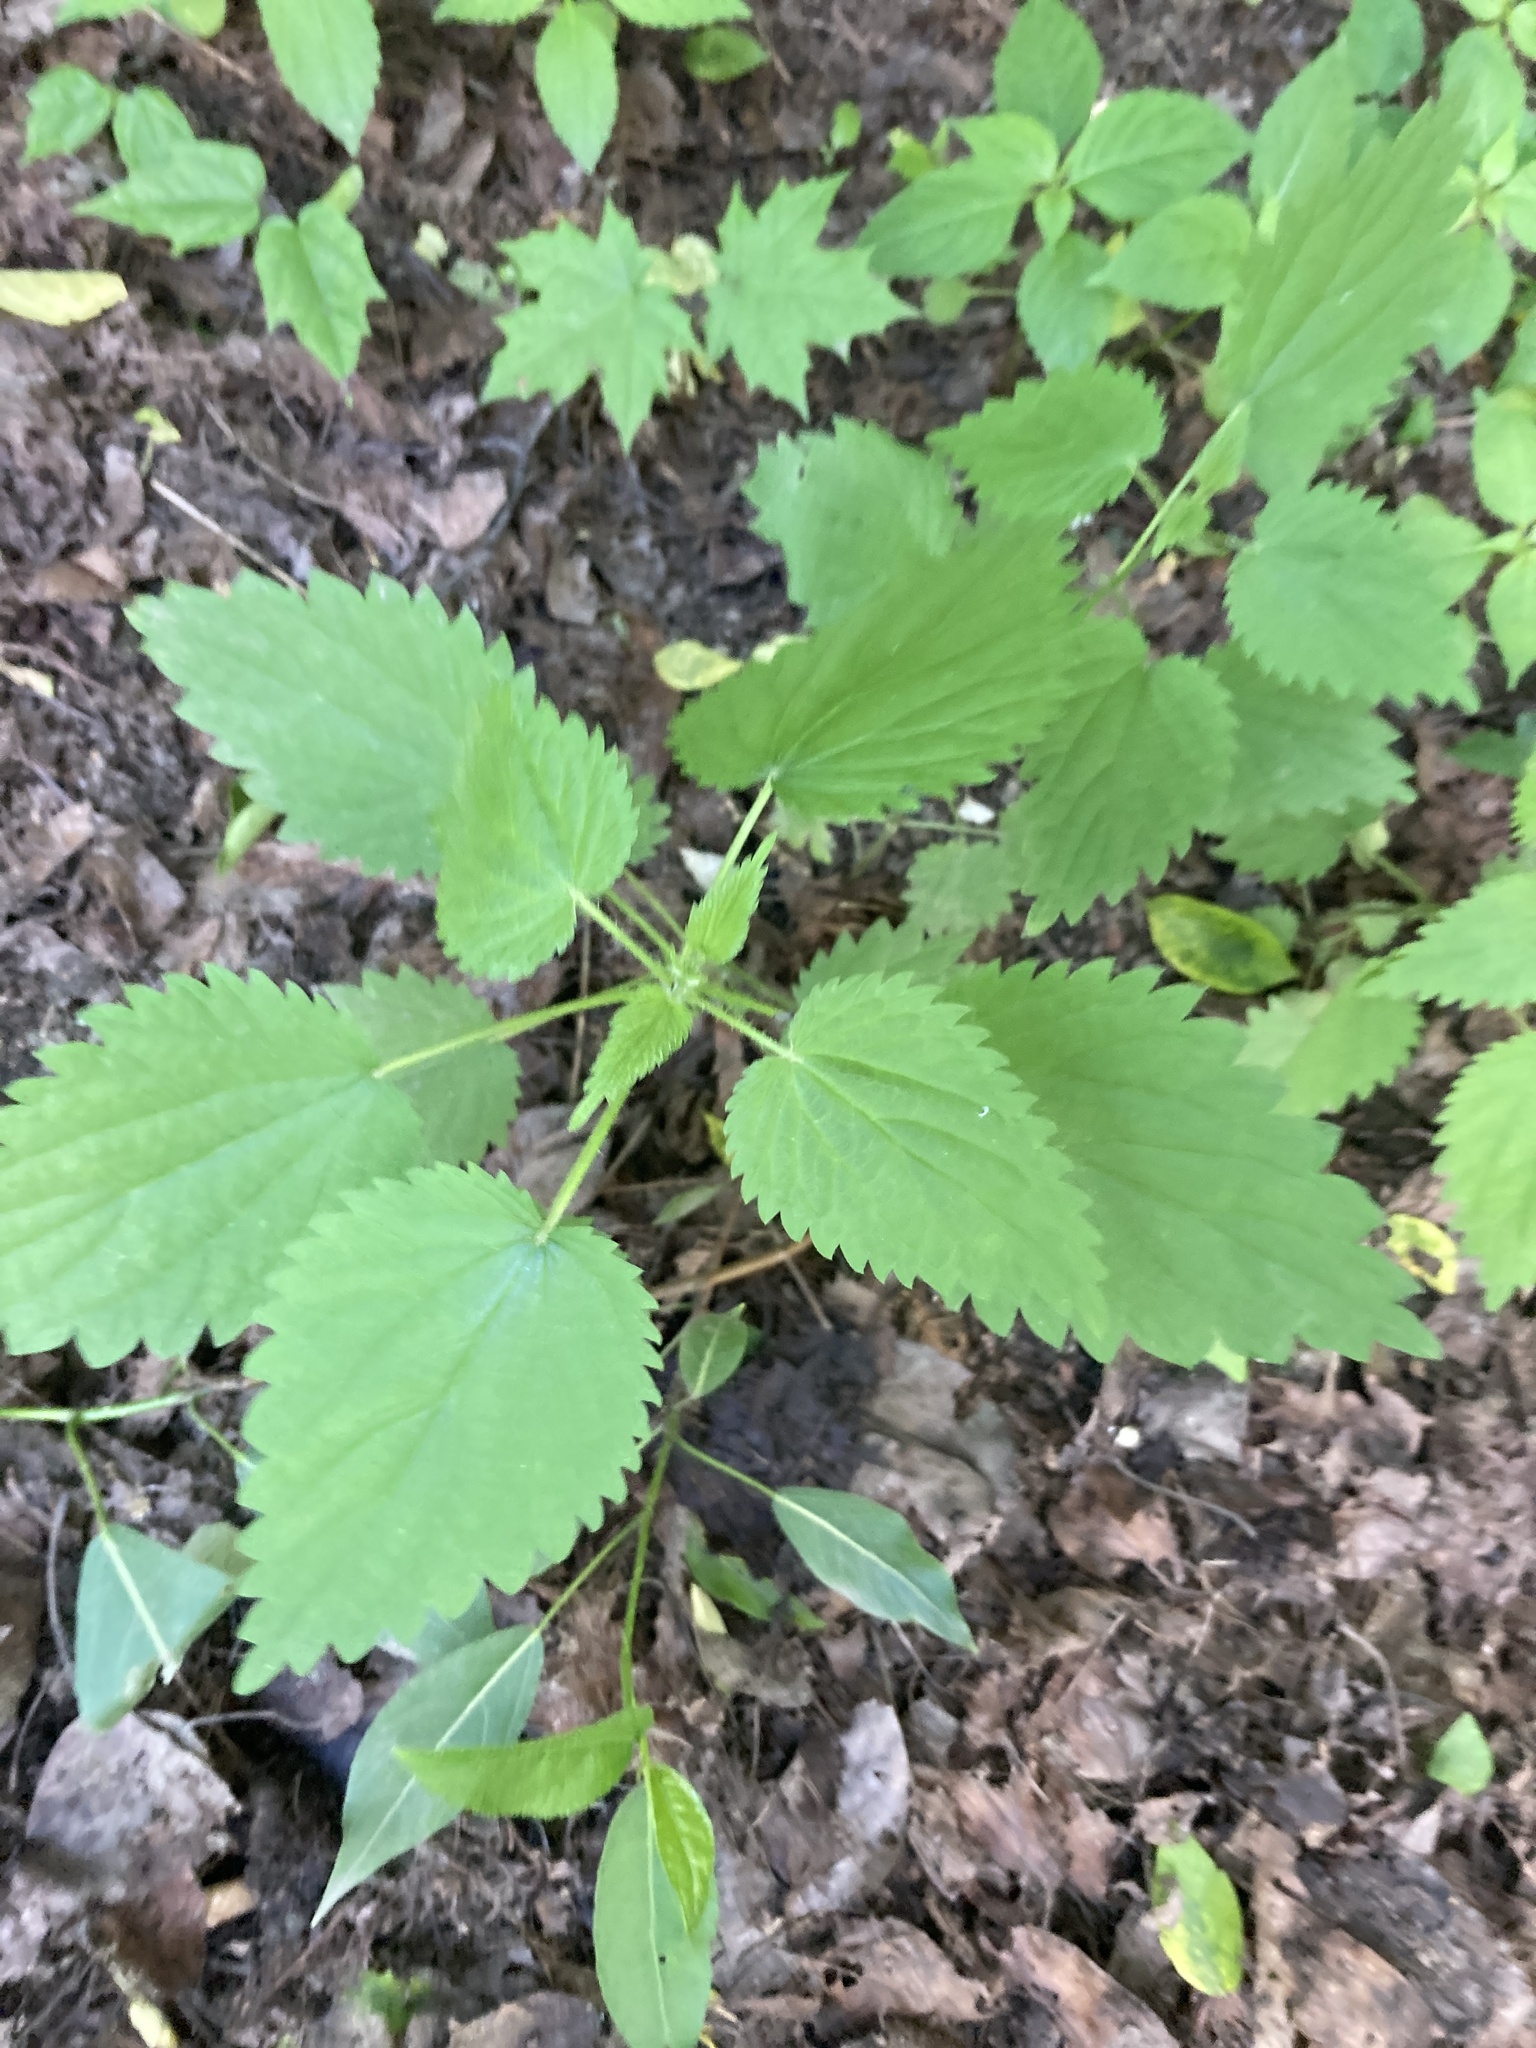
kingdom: Plantae
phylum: Tracheophyta
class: Magnoliopsida
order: Rosales
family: Urticaceae
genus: Urtica
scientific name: Urtica dioica
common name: Common nettle
